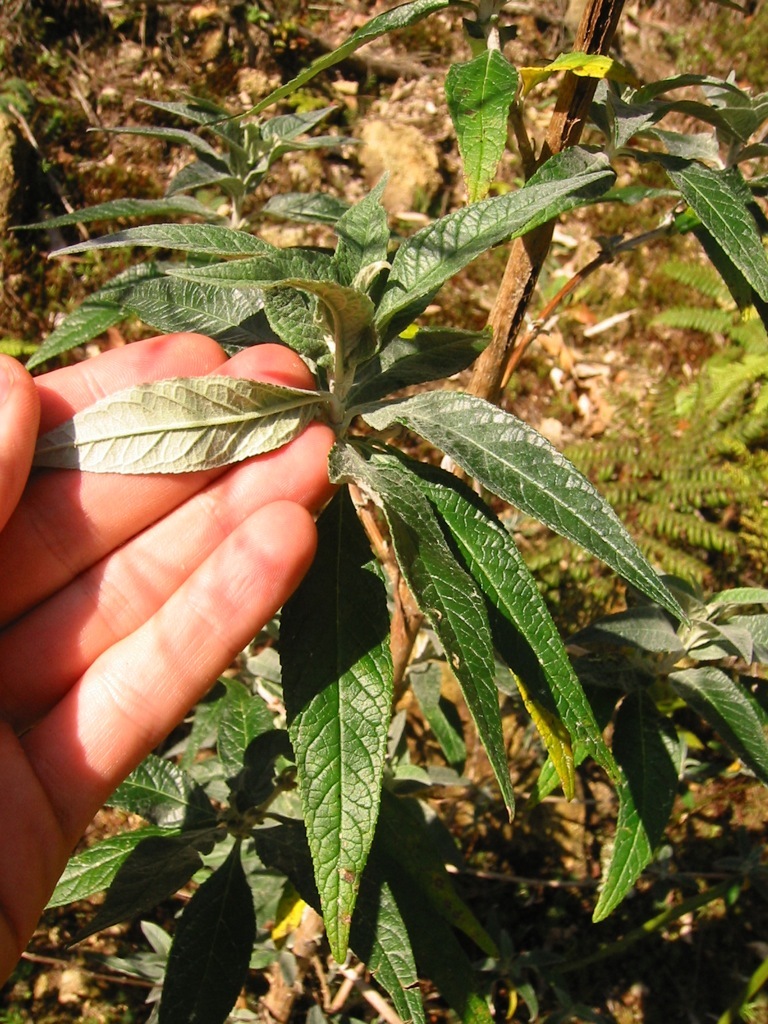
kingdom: Plantae
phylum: Tracheophyta
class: Magnoliopsida
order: Lamiales
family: Scrophulariaceae
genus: Buddleja
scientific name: Buddleja davidii
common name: Butterfly-bush
